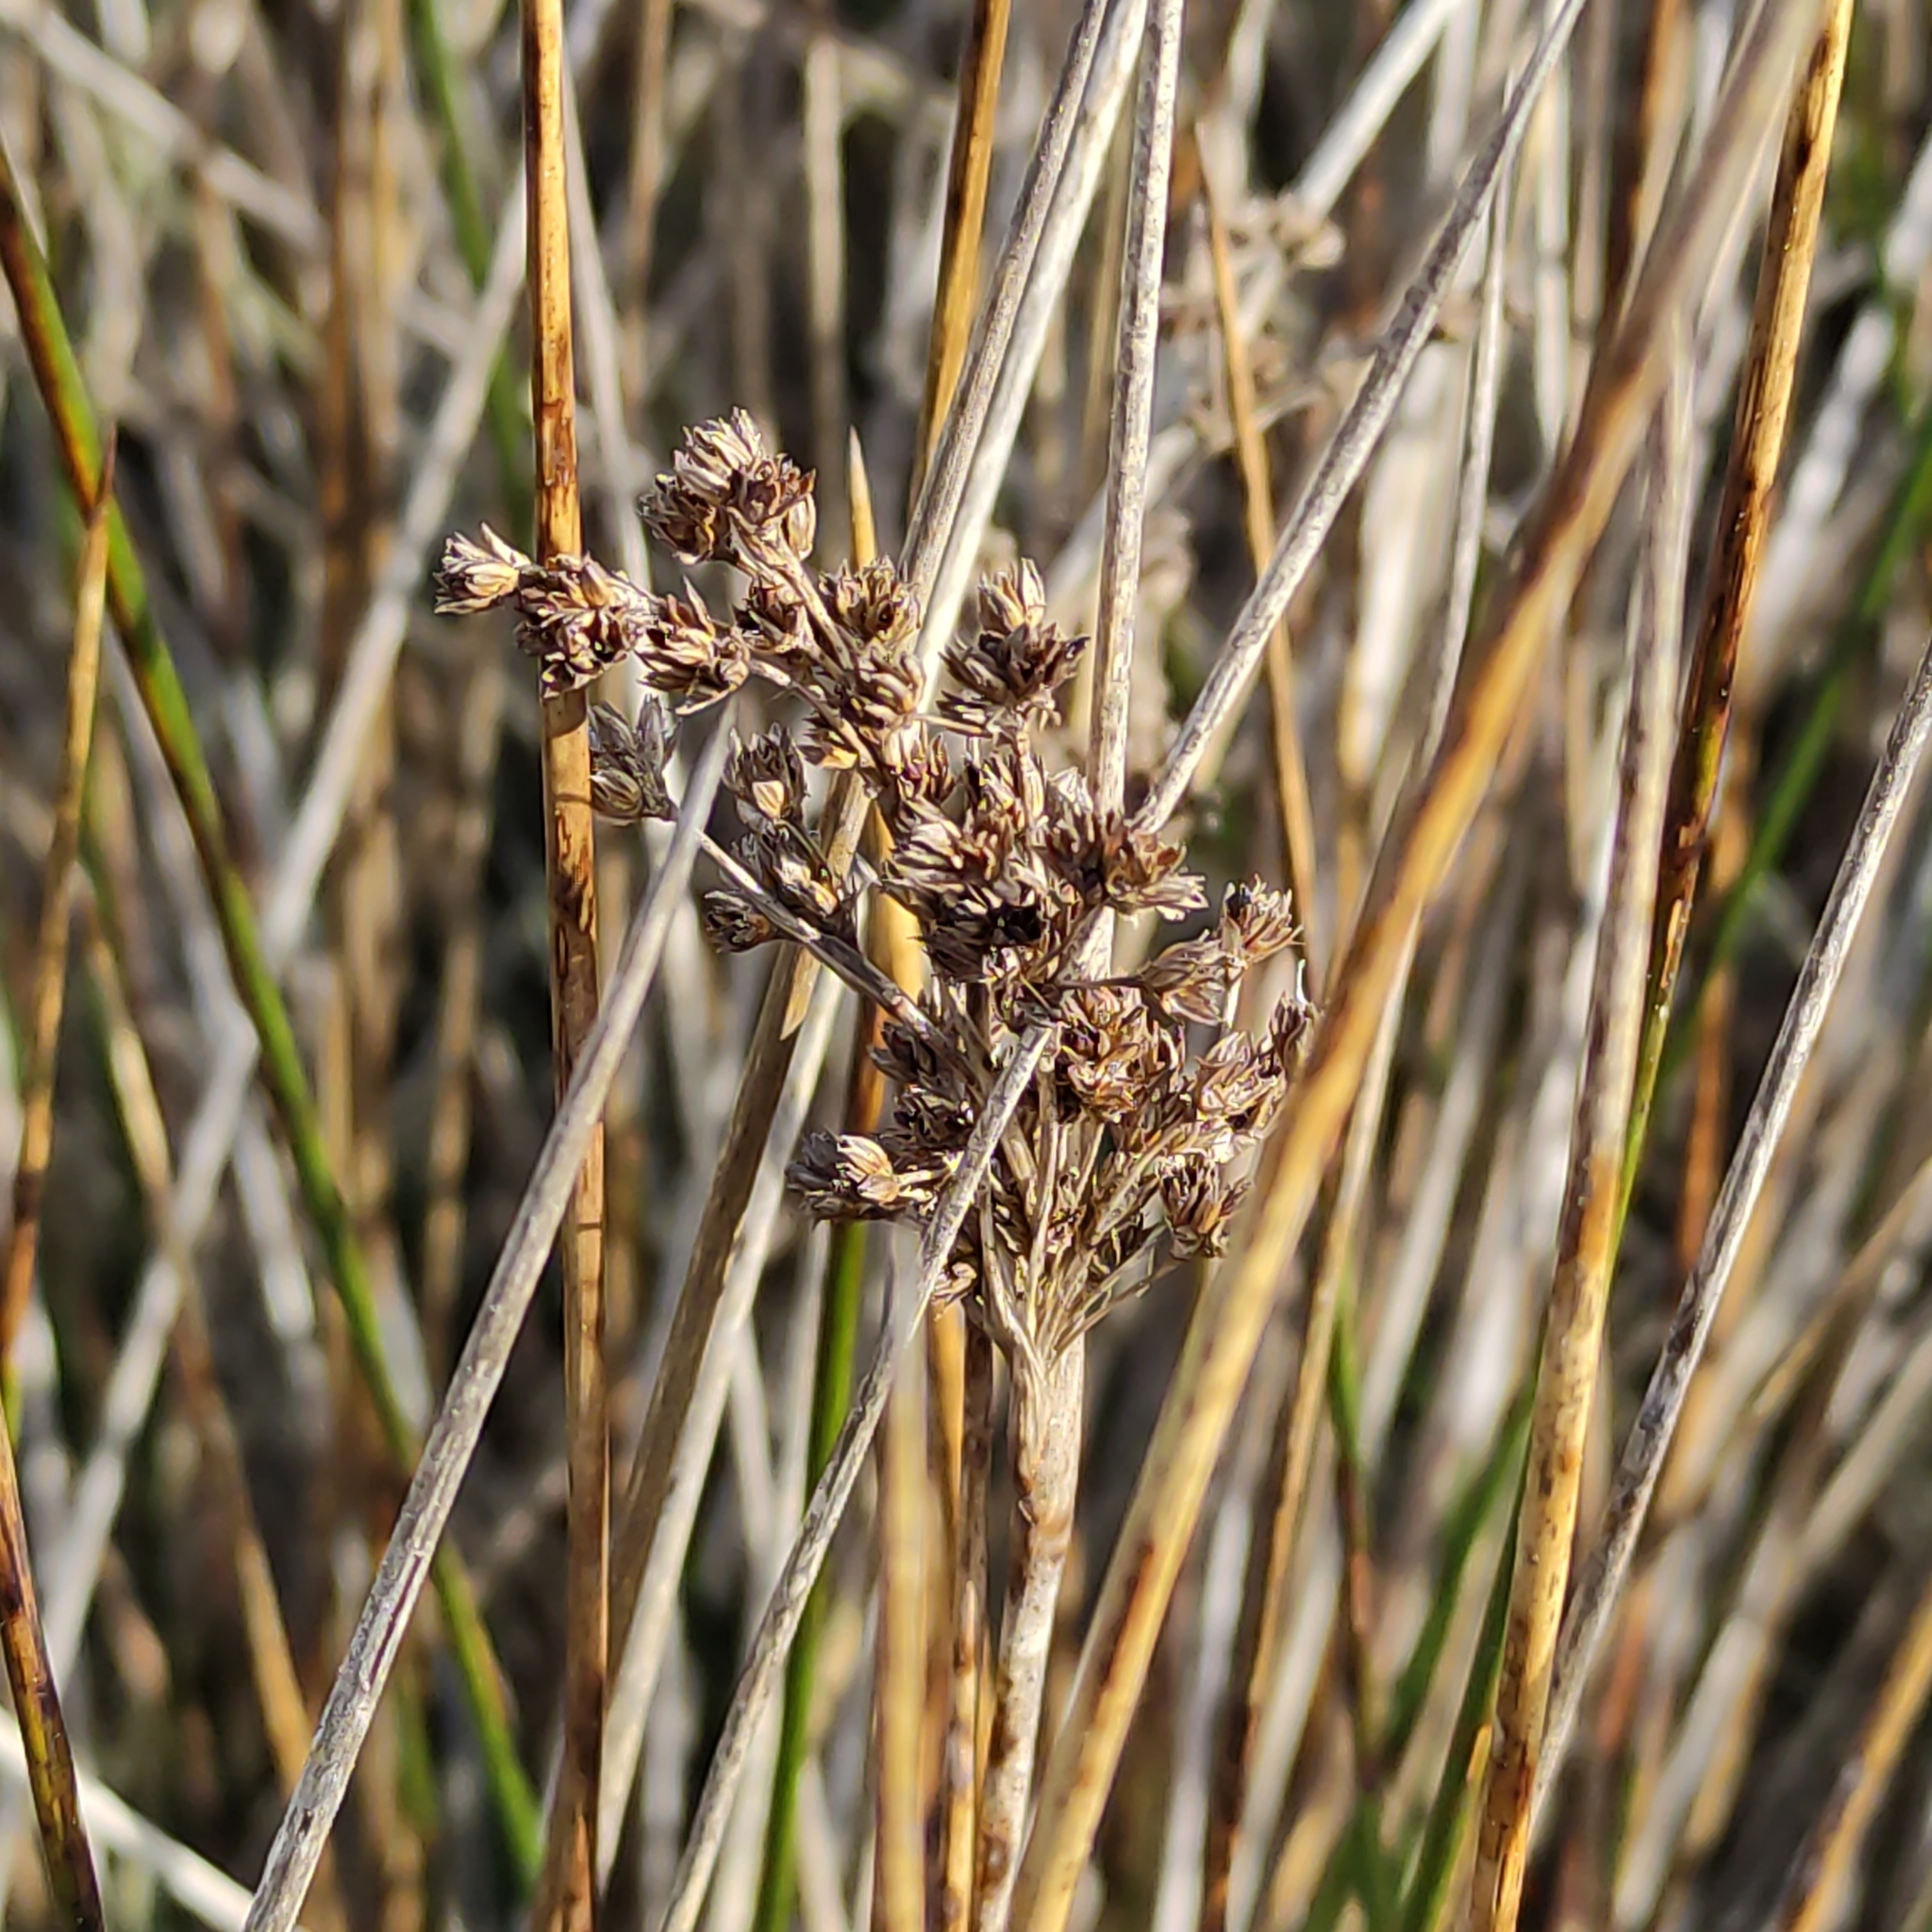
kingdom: Plantae
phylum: Tracheophyta
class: Liliopsida
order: Poales
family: Juncaceae
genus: Juncus
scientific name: Juncus kraussii
